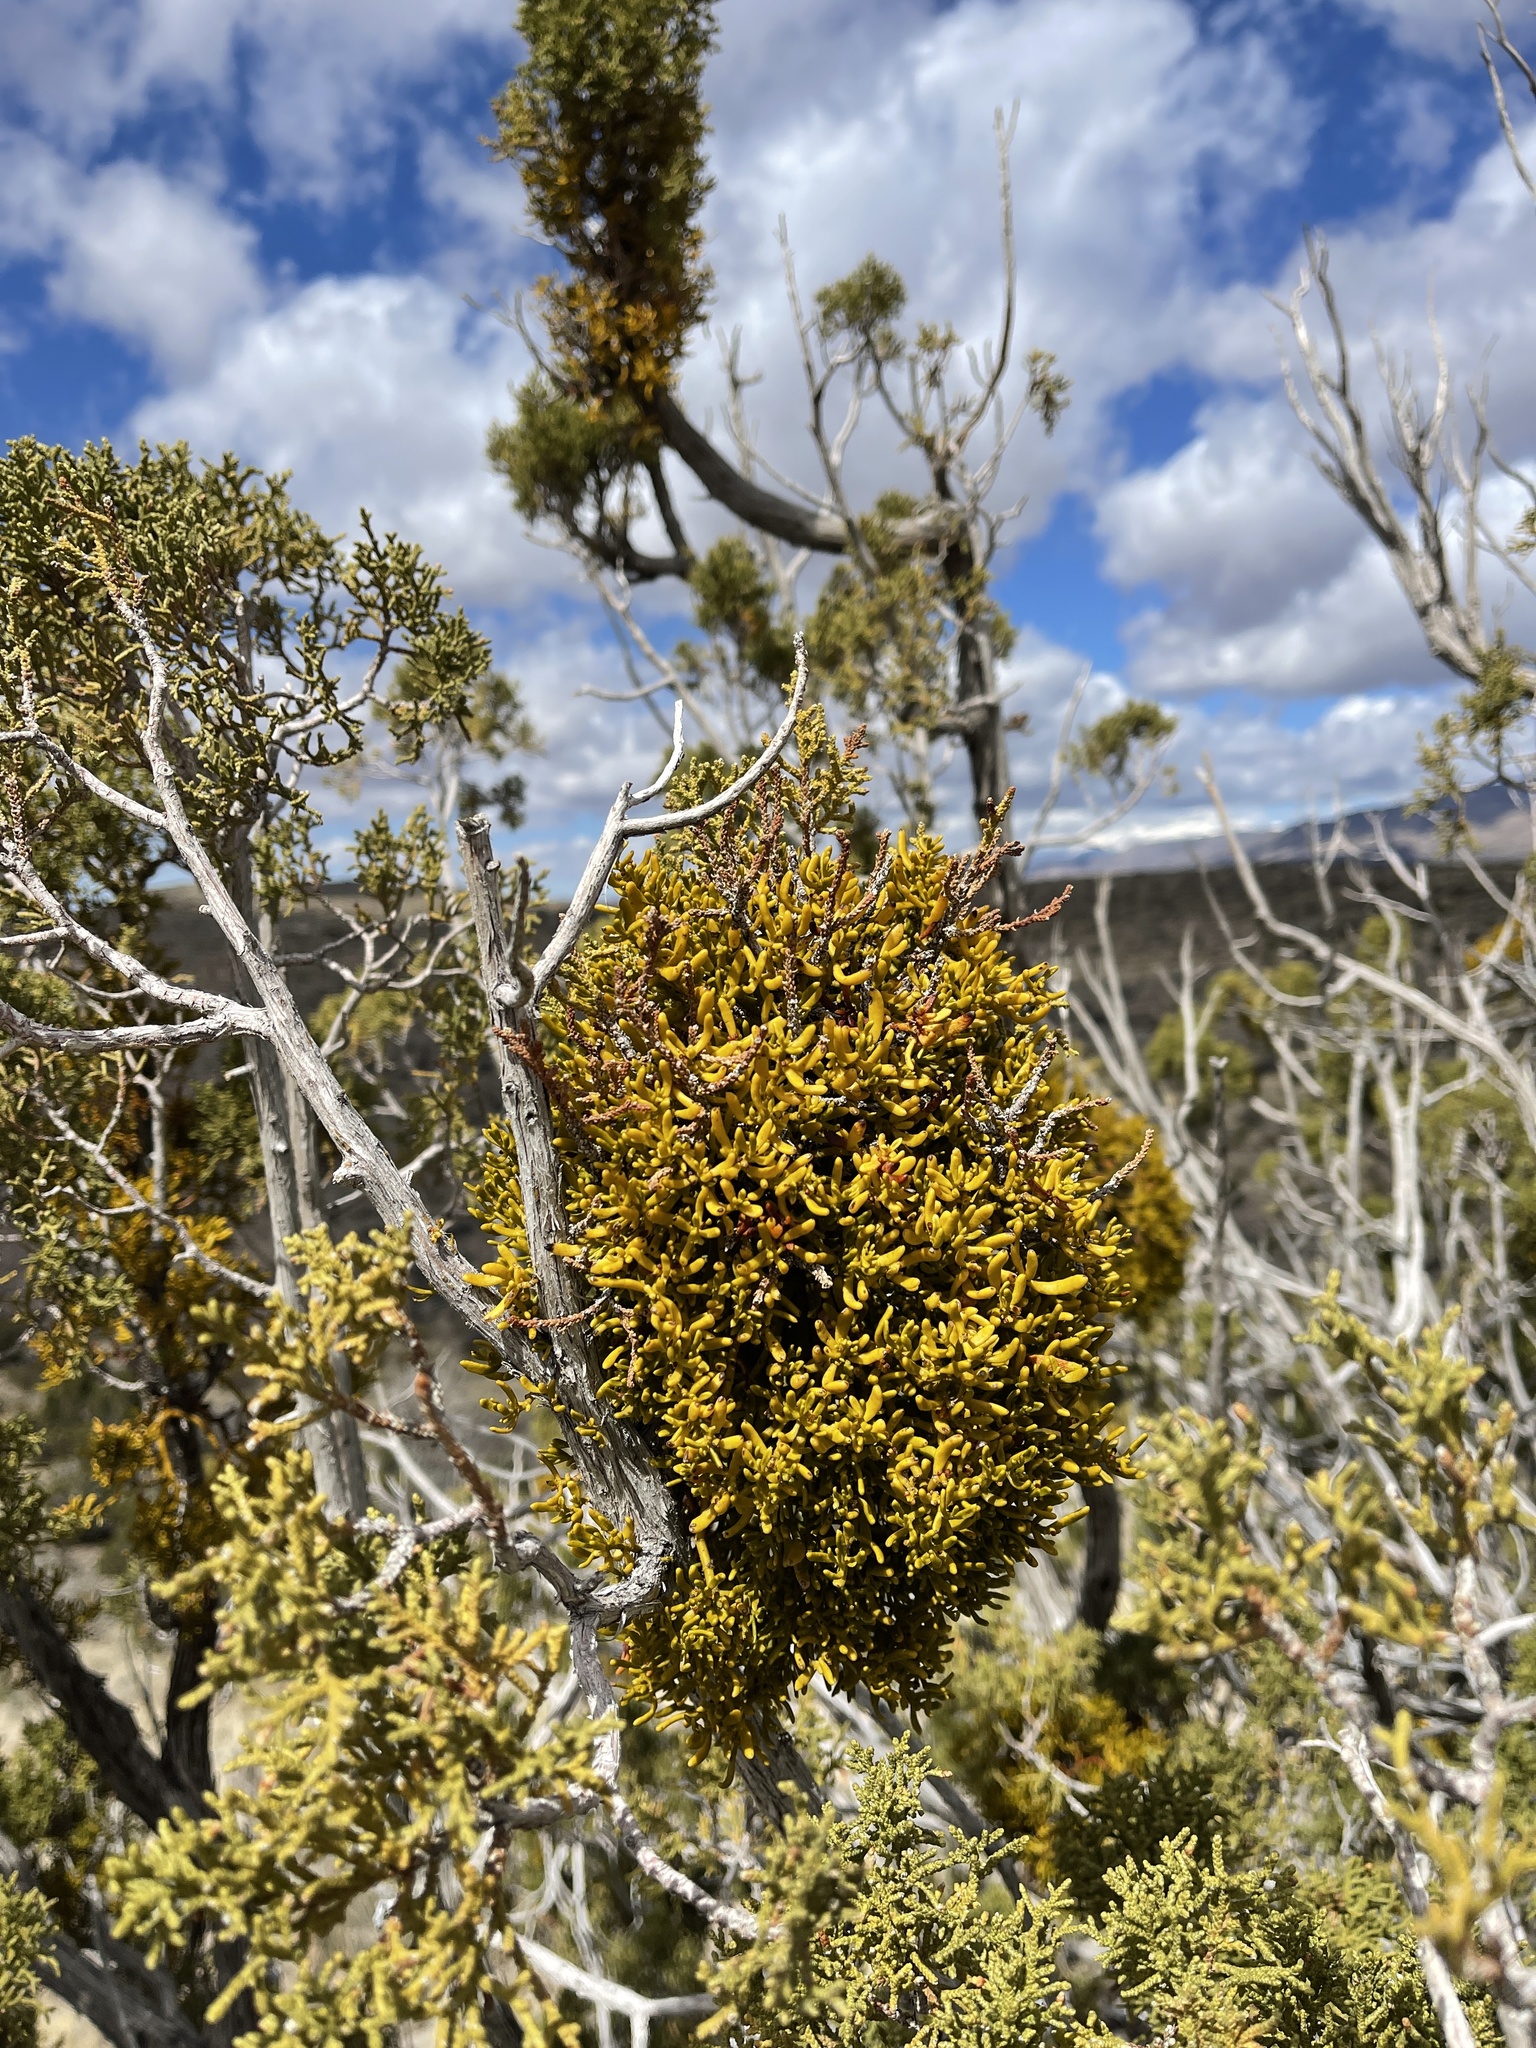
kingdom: Plantae
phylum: Tracheophyta
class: Magnoliopsida
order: Santalales
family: Viscaceae
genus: Phoradendron
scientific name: Phoradendron hawksworthii
